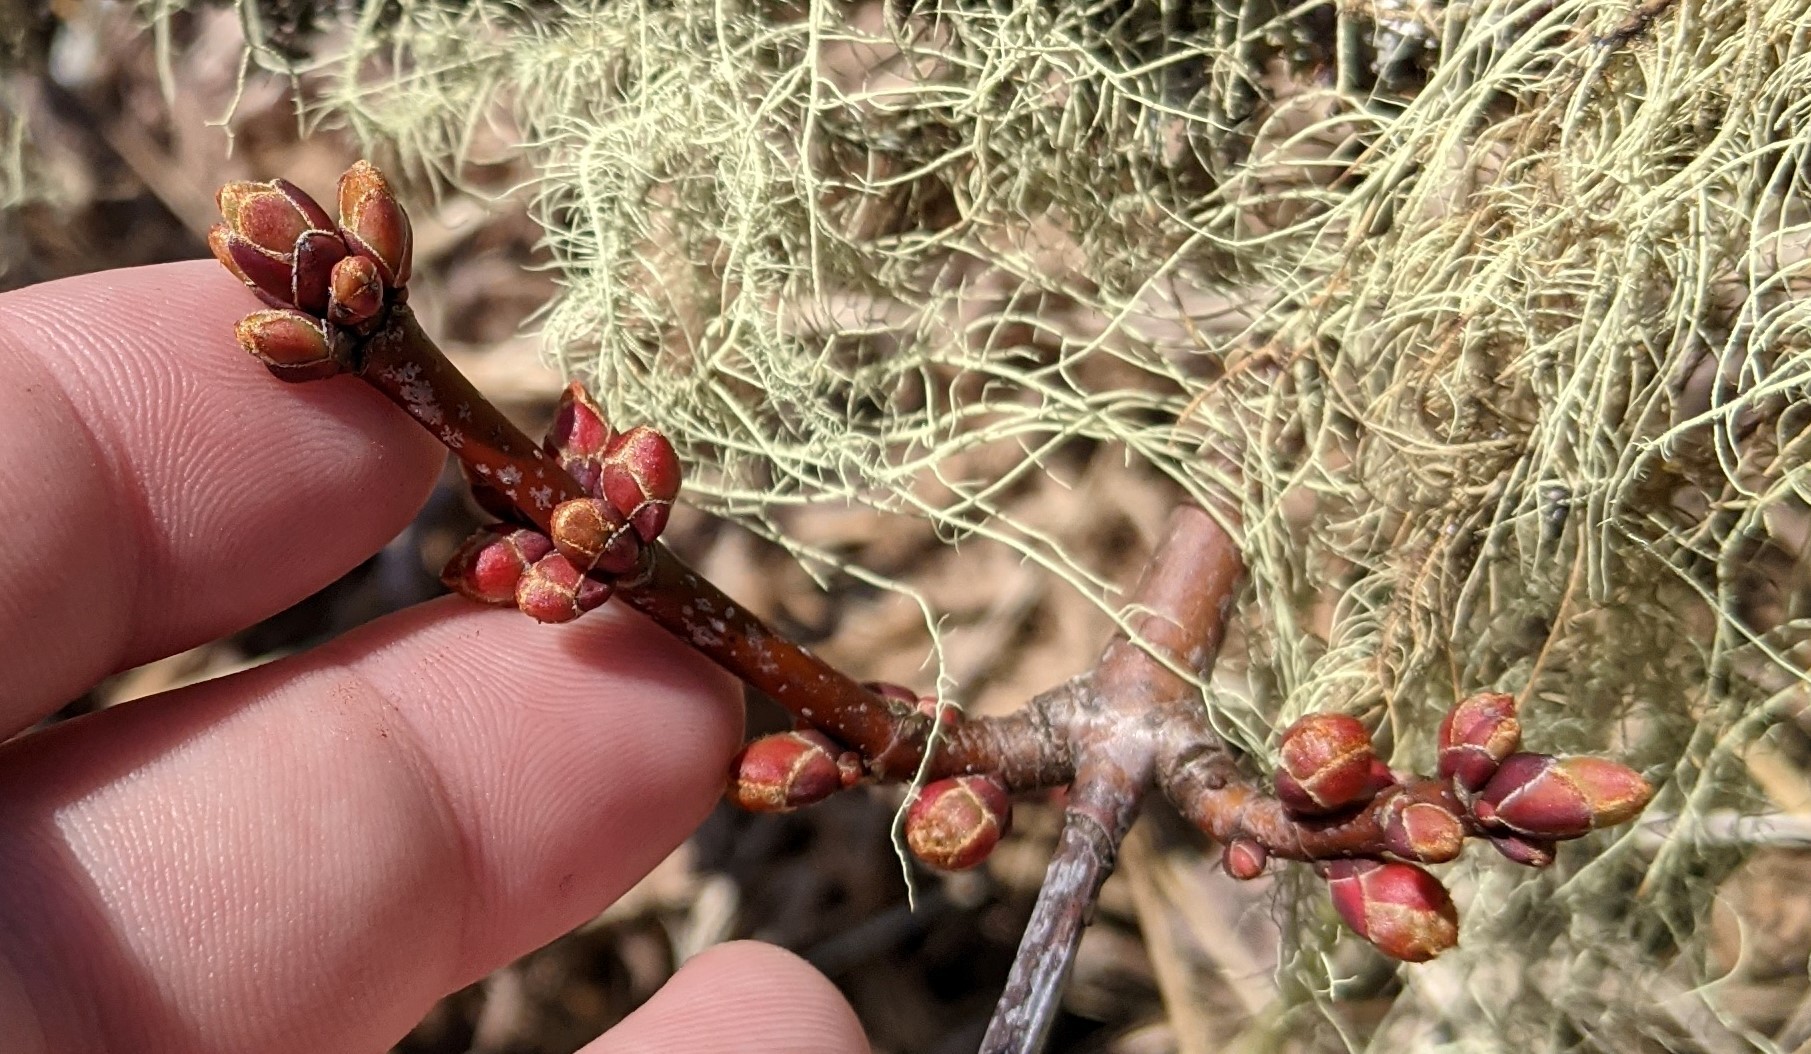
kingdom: Plantae
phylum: Tracheophyta
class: Magnoliopsida
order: Sapindales
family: Sapindaceae
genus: Acer
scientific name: Acer rubrum
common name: Red maple
